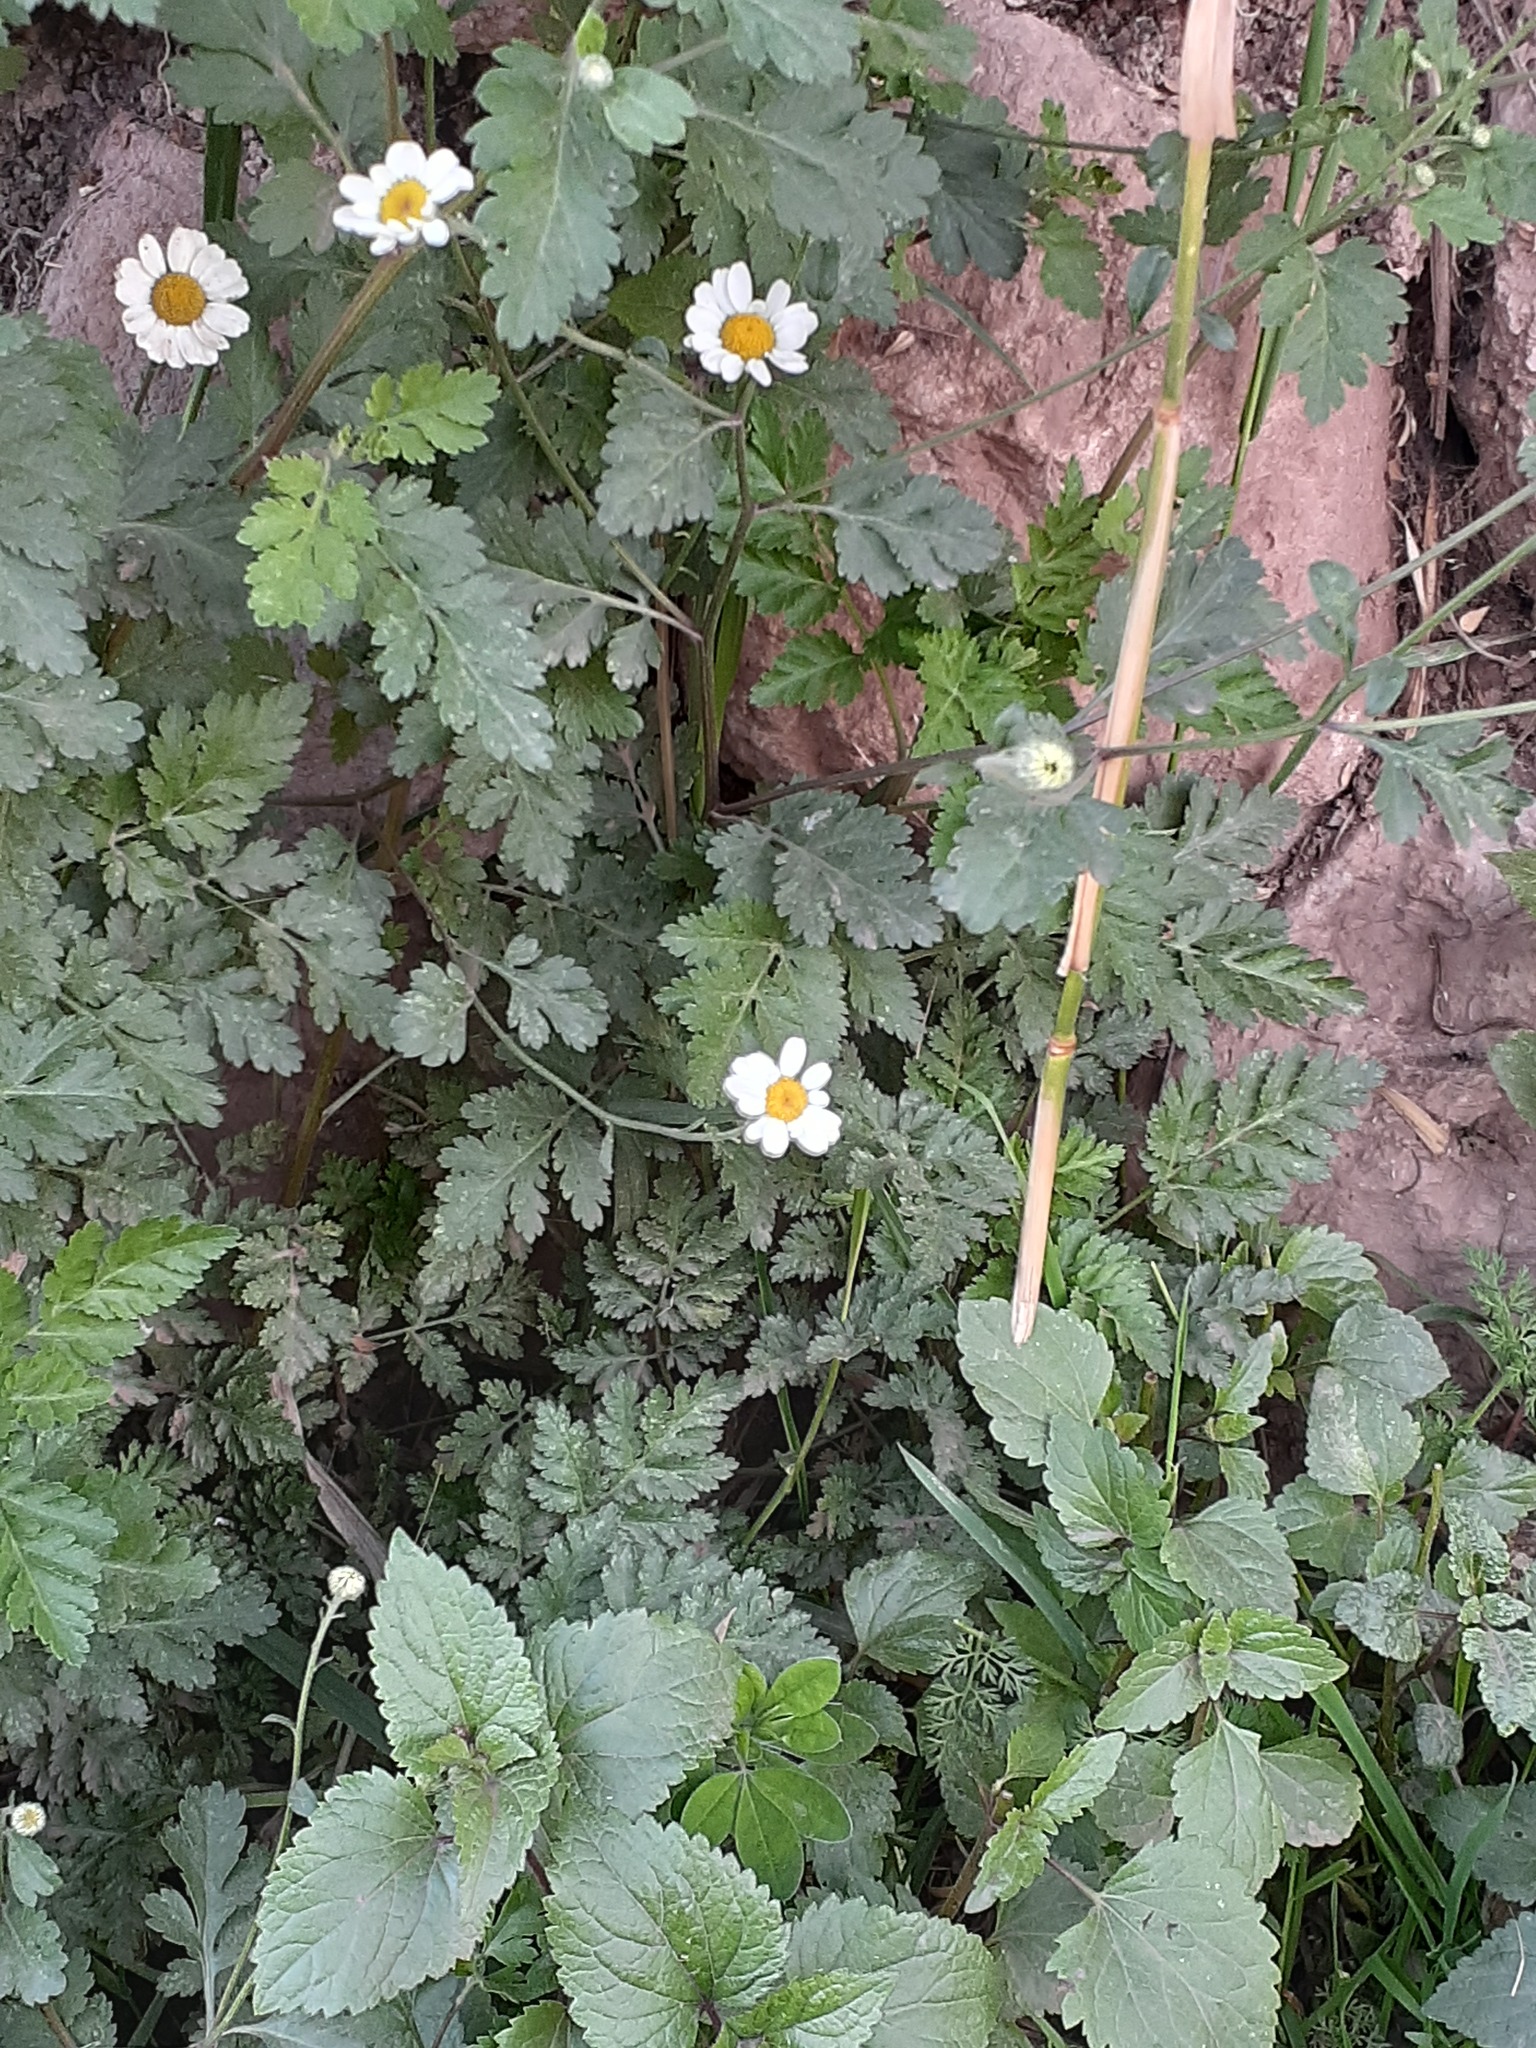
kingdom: Plantae
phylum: Tracheophyta
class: Magnoliopsida
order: Asterales
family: Asteraceae
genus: Tanacetum
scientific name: Tanacetum parthenium
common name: Feverfew
